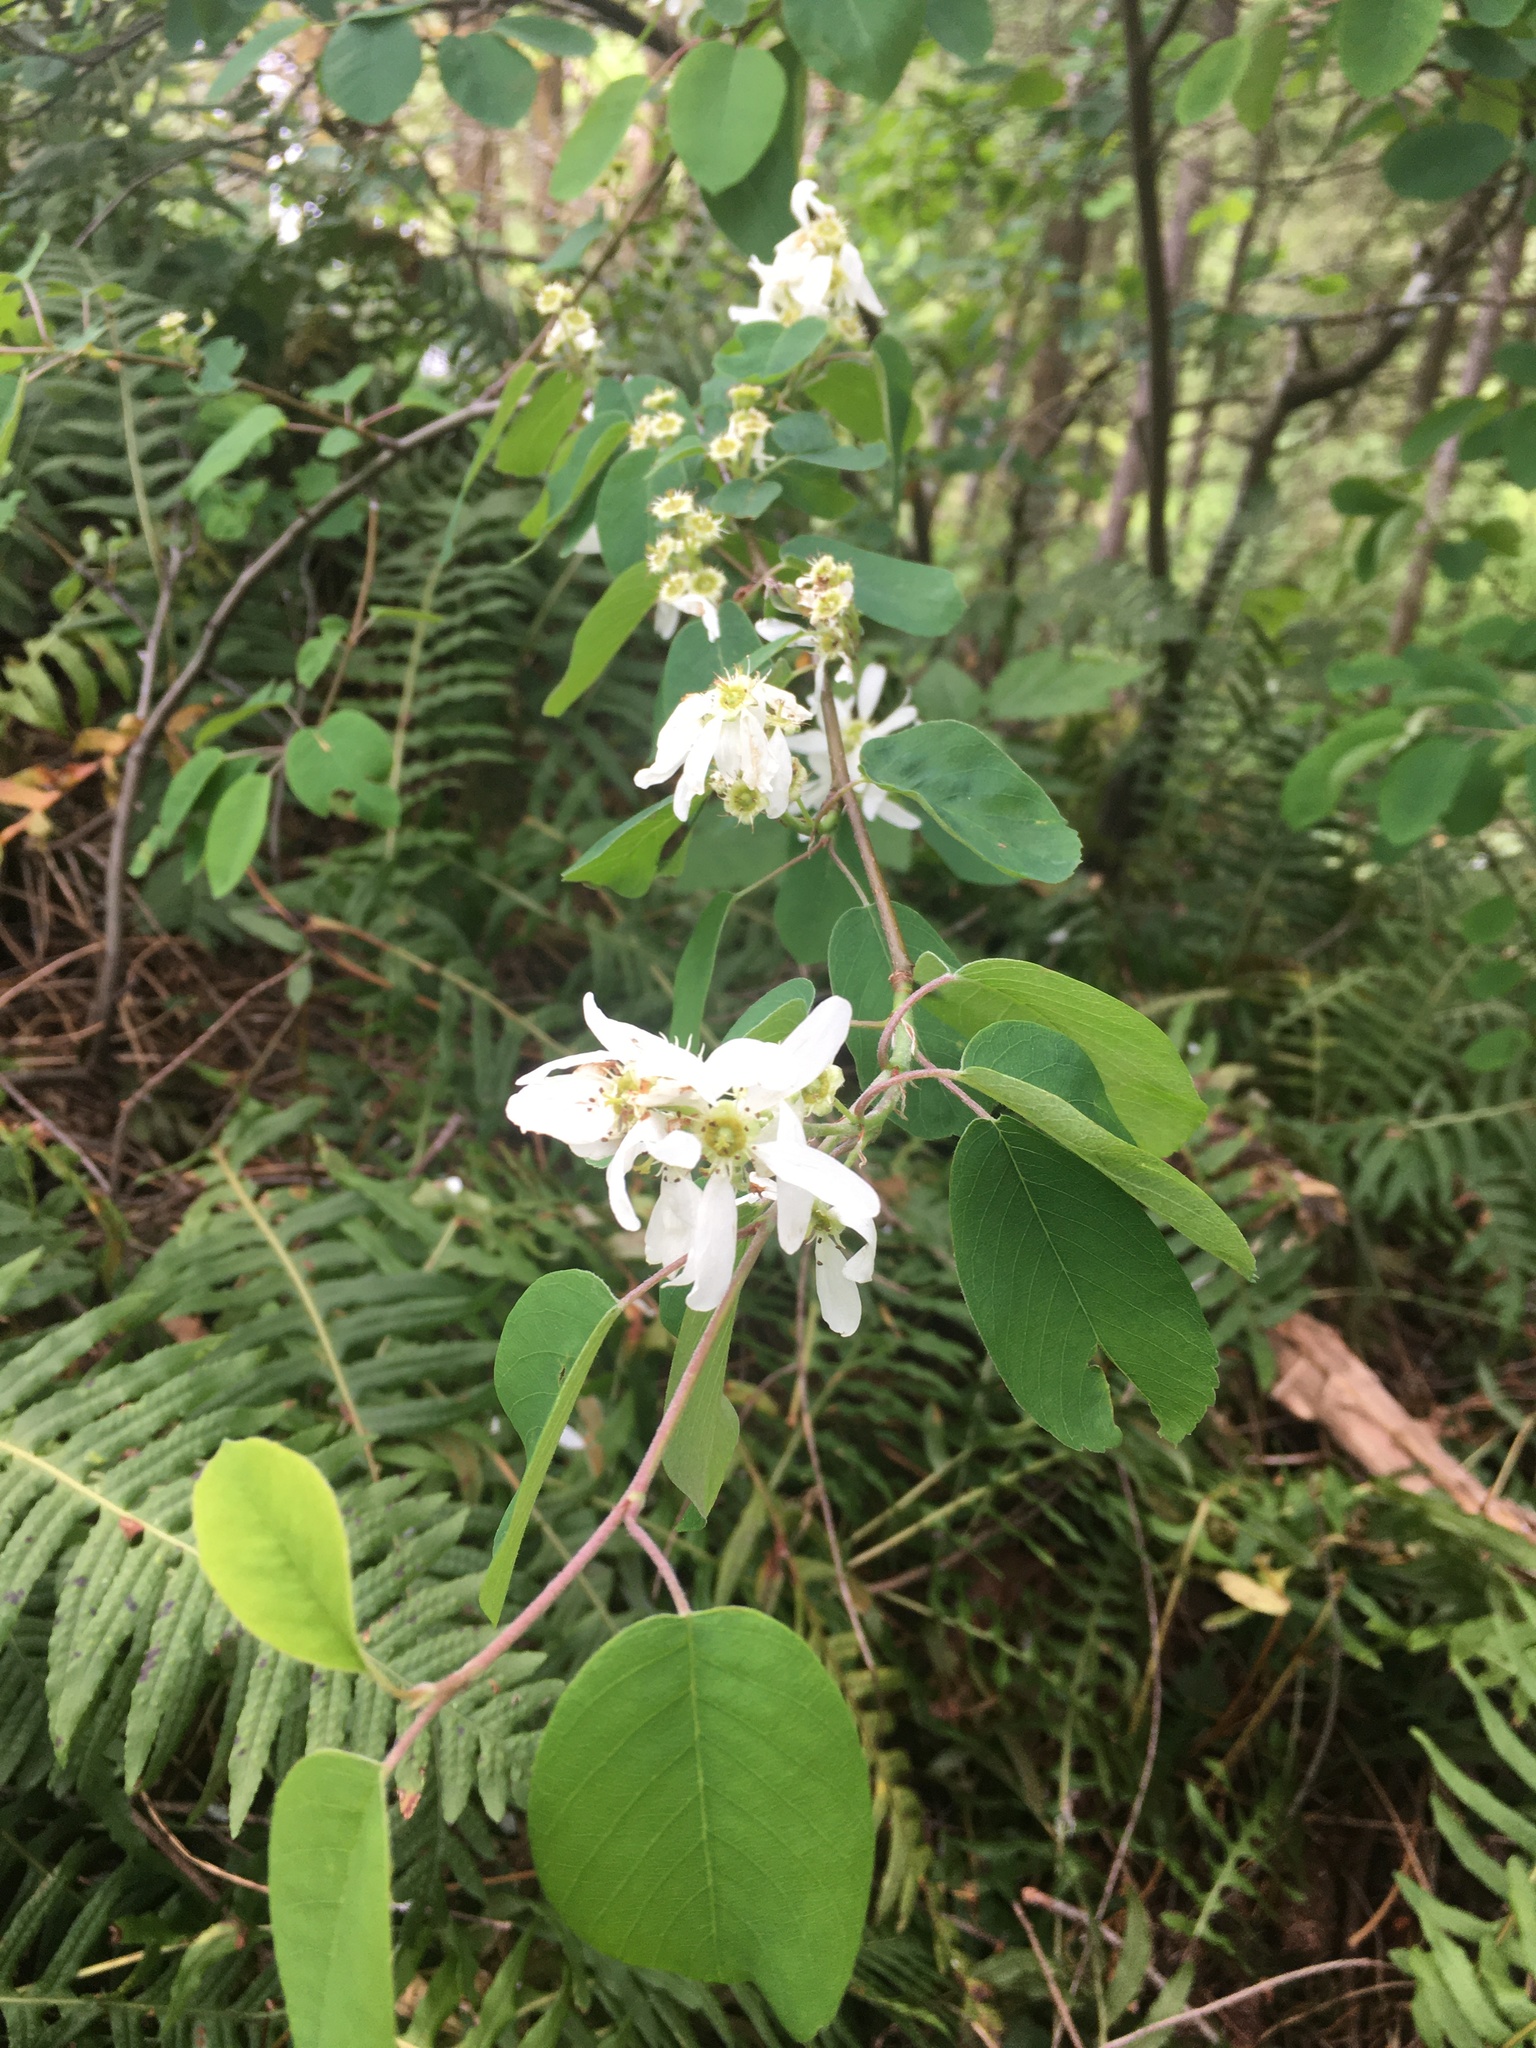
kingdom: Plantae
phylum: Tracheophyta
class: Magnoliopsida
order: Rosales
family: Rosaceae
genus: Amelanchier
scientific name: Amelanchier alnifolia
